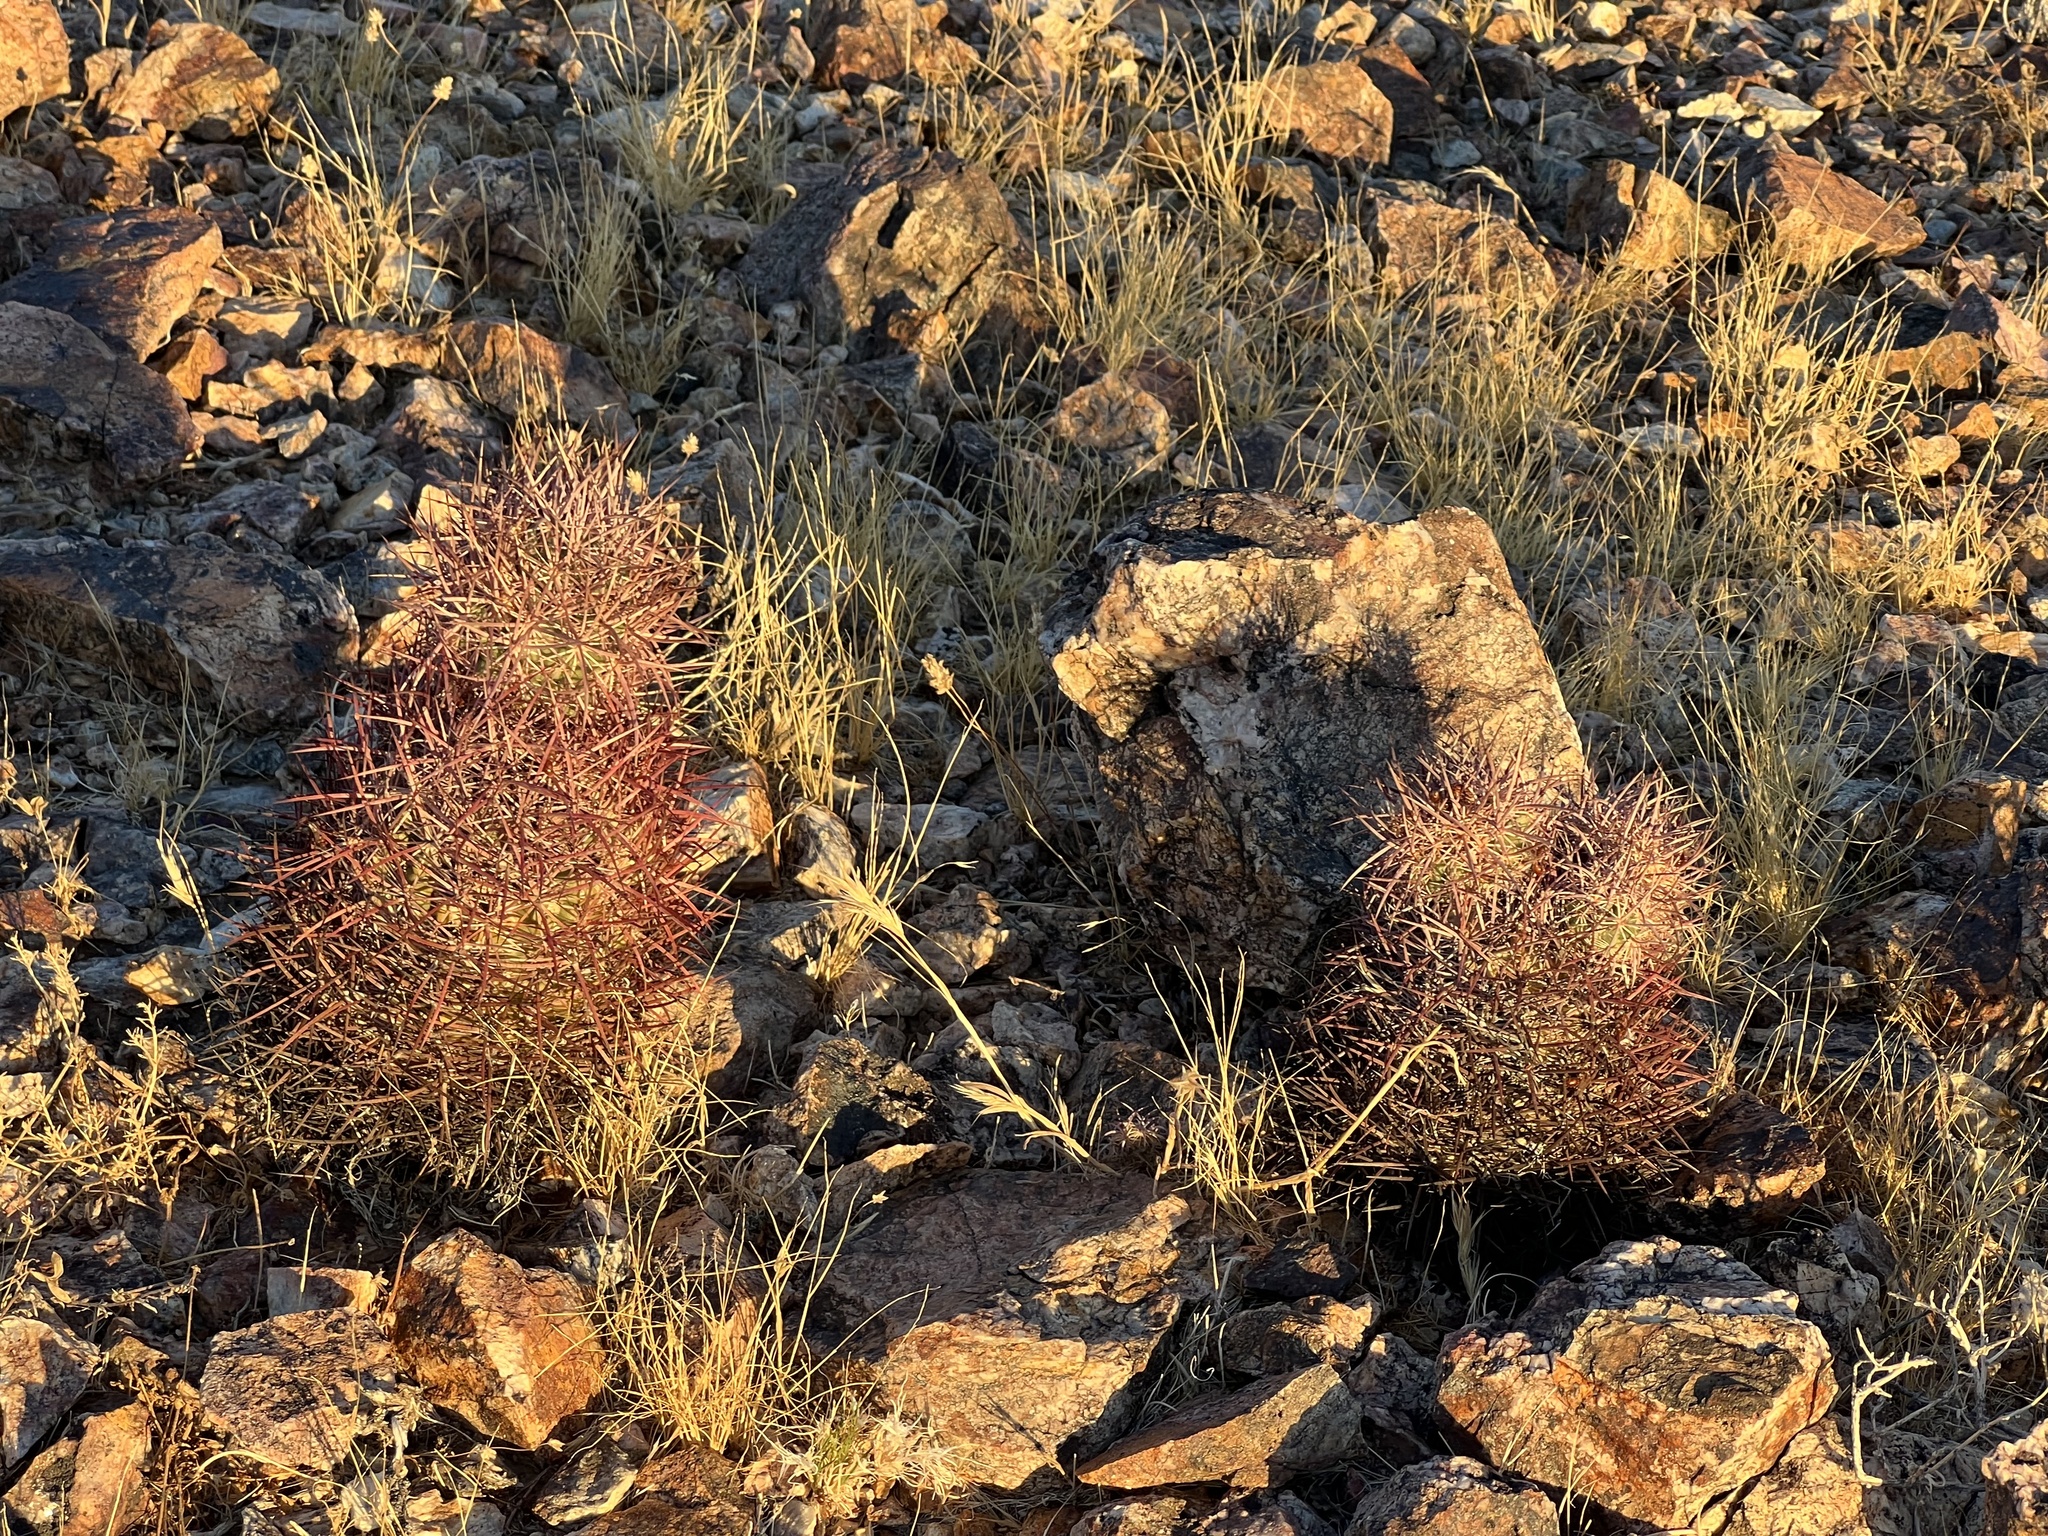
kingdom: Plantae
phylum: Tracheophyta
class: Magnoliopsida
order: Caryophyllales
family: Cactaceae
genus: Sclerocactus
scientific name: Sclerocactus johnsonii
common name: Eight-spine fishhook cactus
